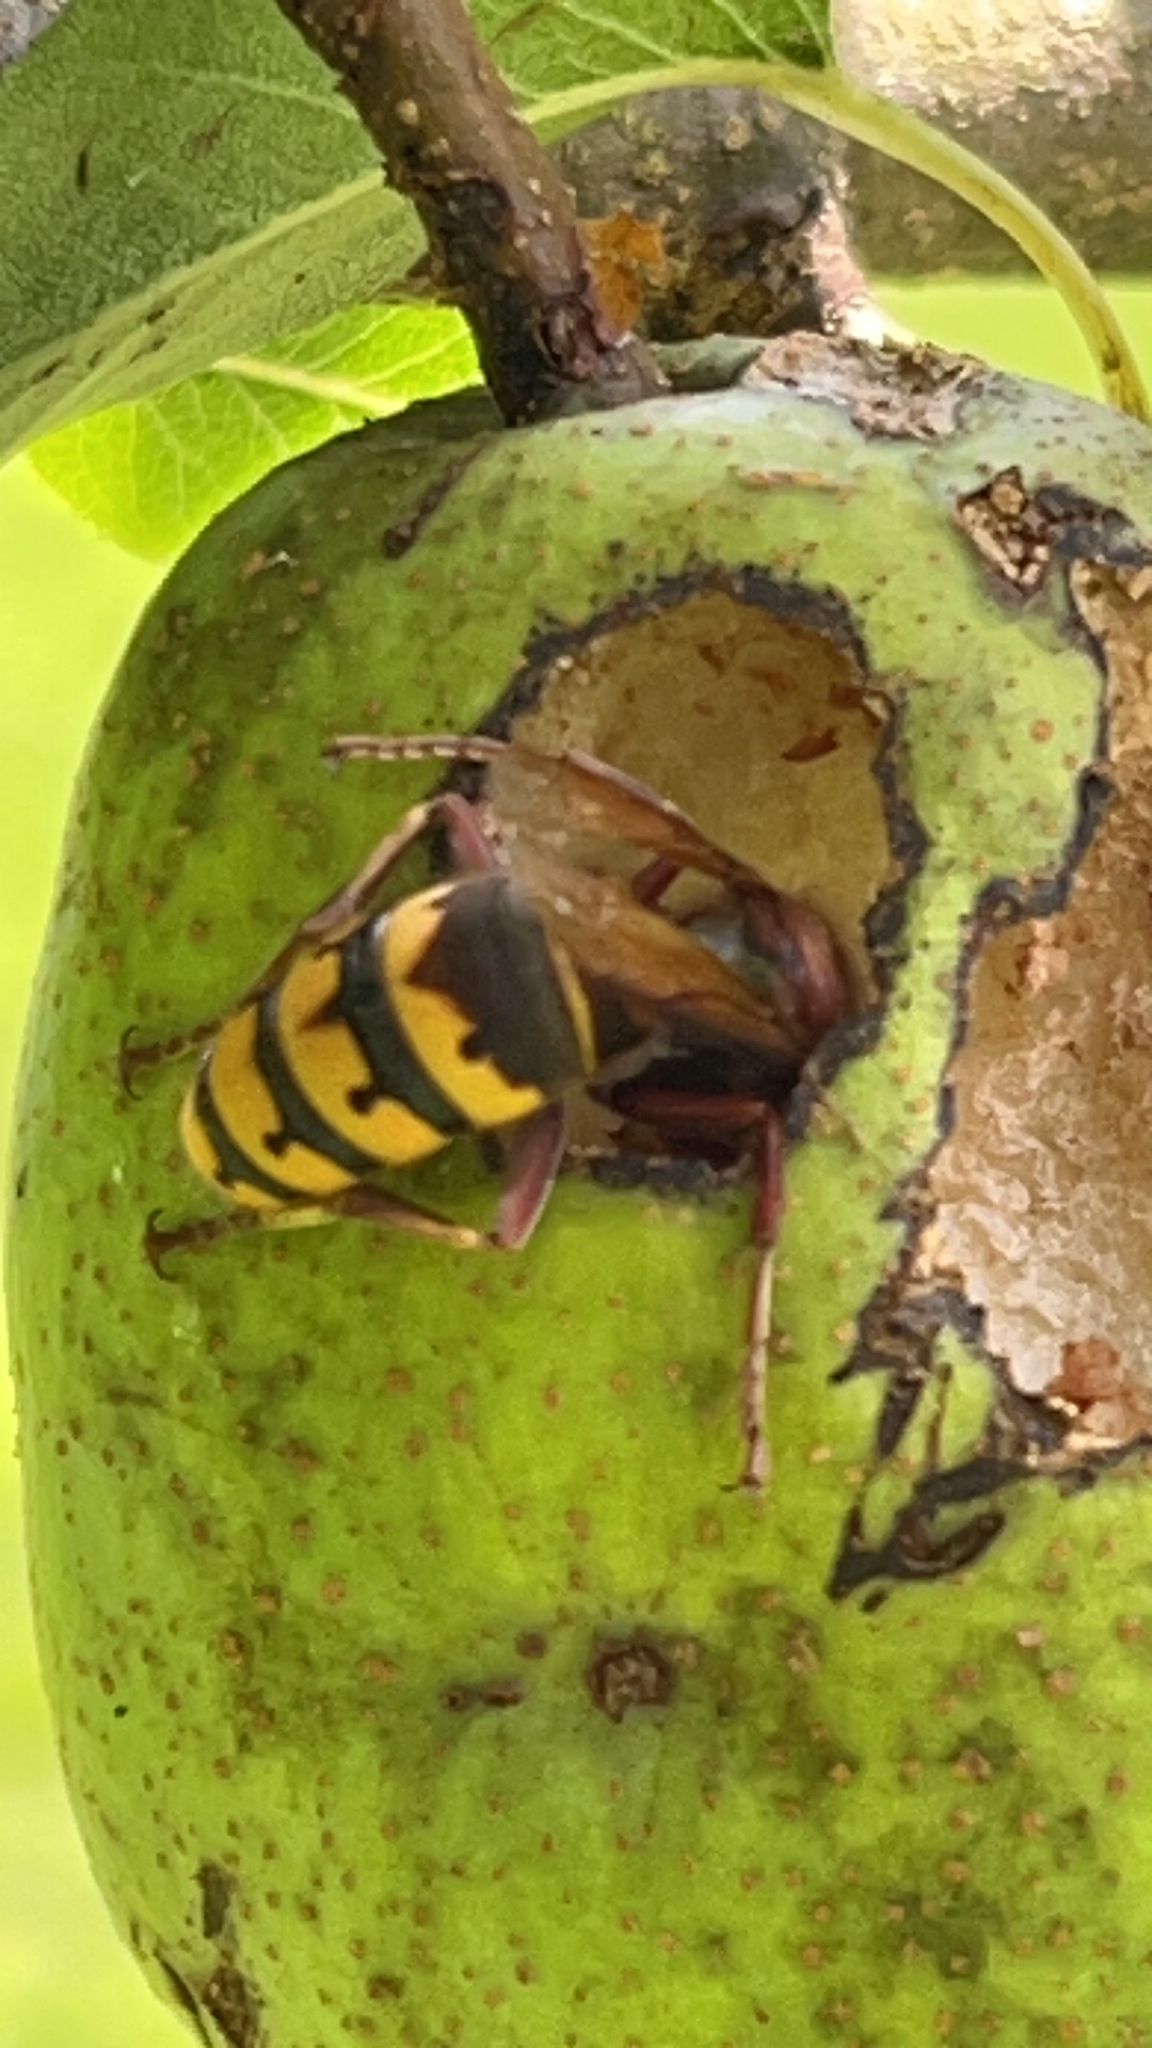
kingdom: Animalia
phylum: Arthropoda
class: Insecta
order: Hymenoptera
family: Vespidae
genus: Vespa
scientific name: Vespa crabro
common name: Hornet
